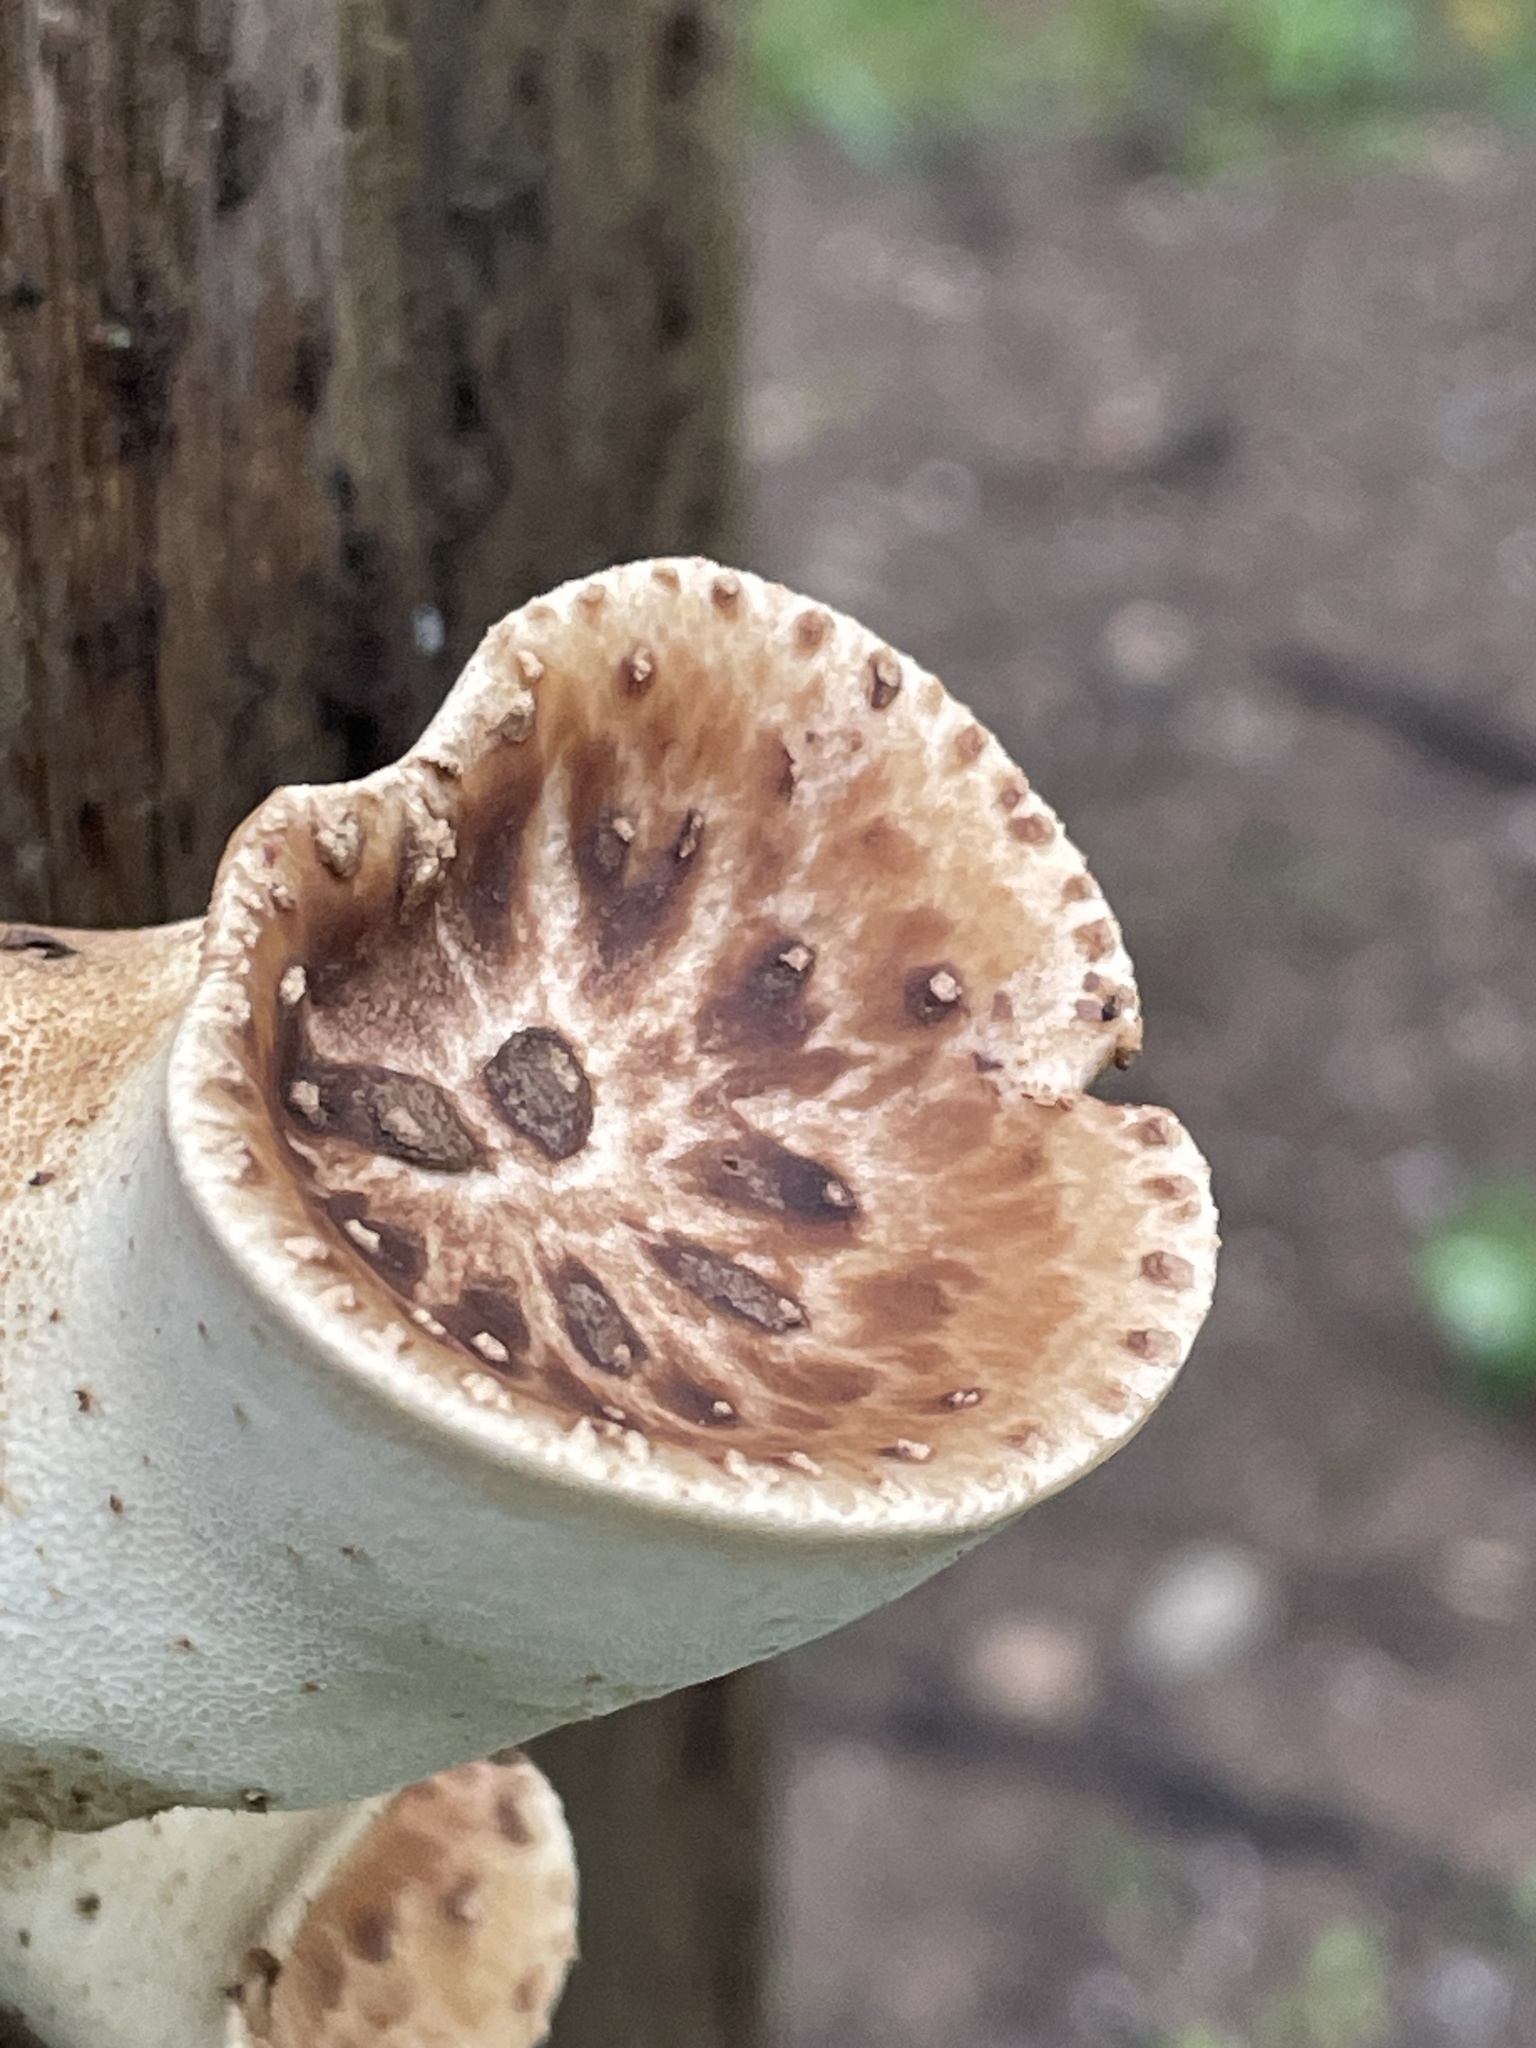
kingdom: Fungi
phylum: Basidiomycota
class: Agaricomycetes
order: Polyporales
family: Polyporaceae
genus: Cerioporus
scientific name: Cerioporus squamosus
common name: Dryad's saddle
